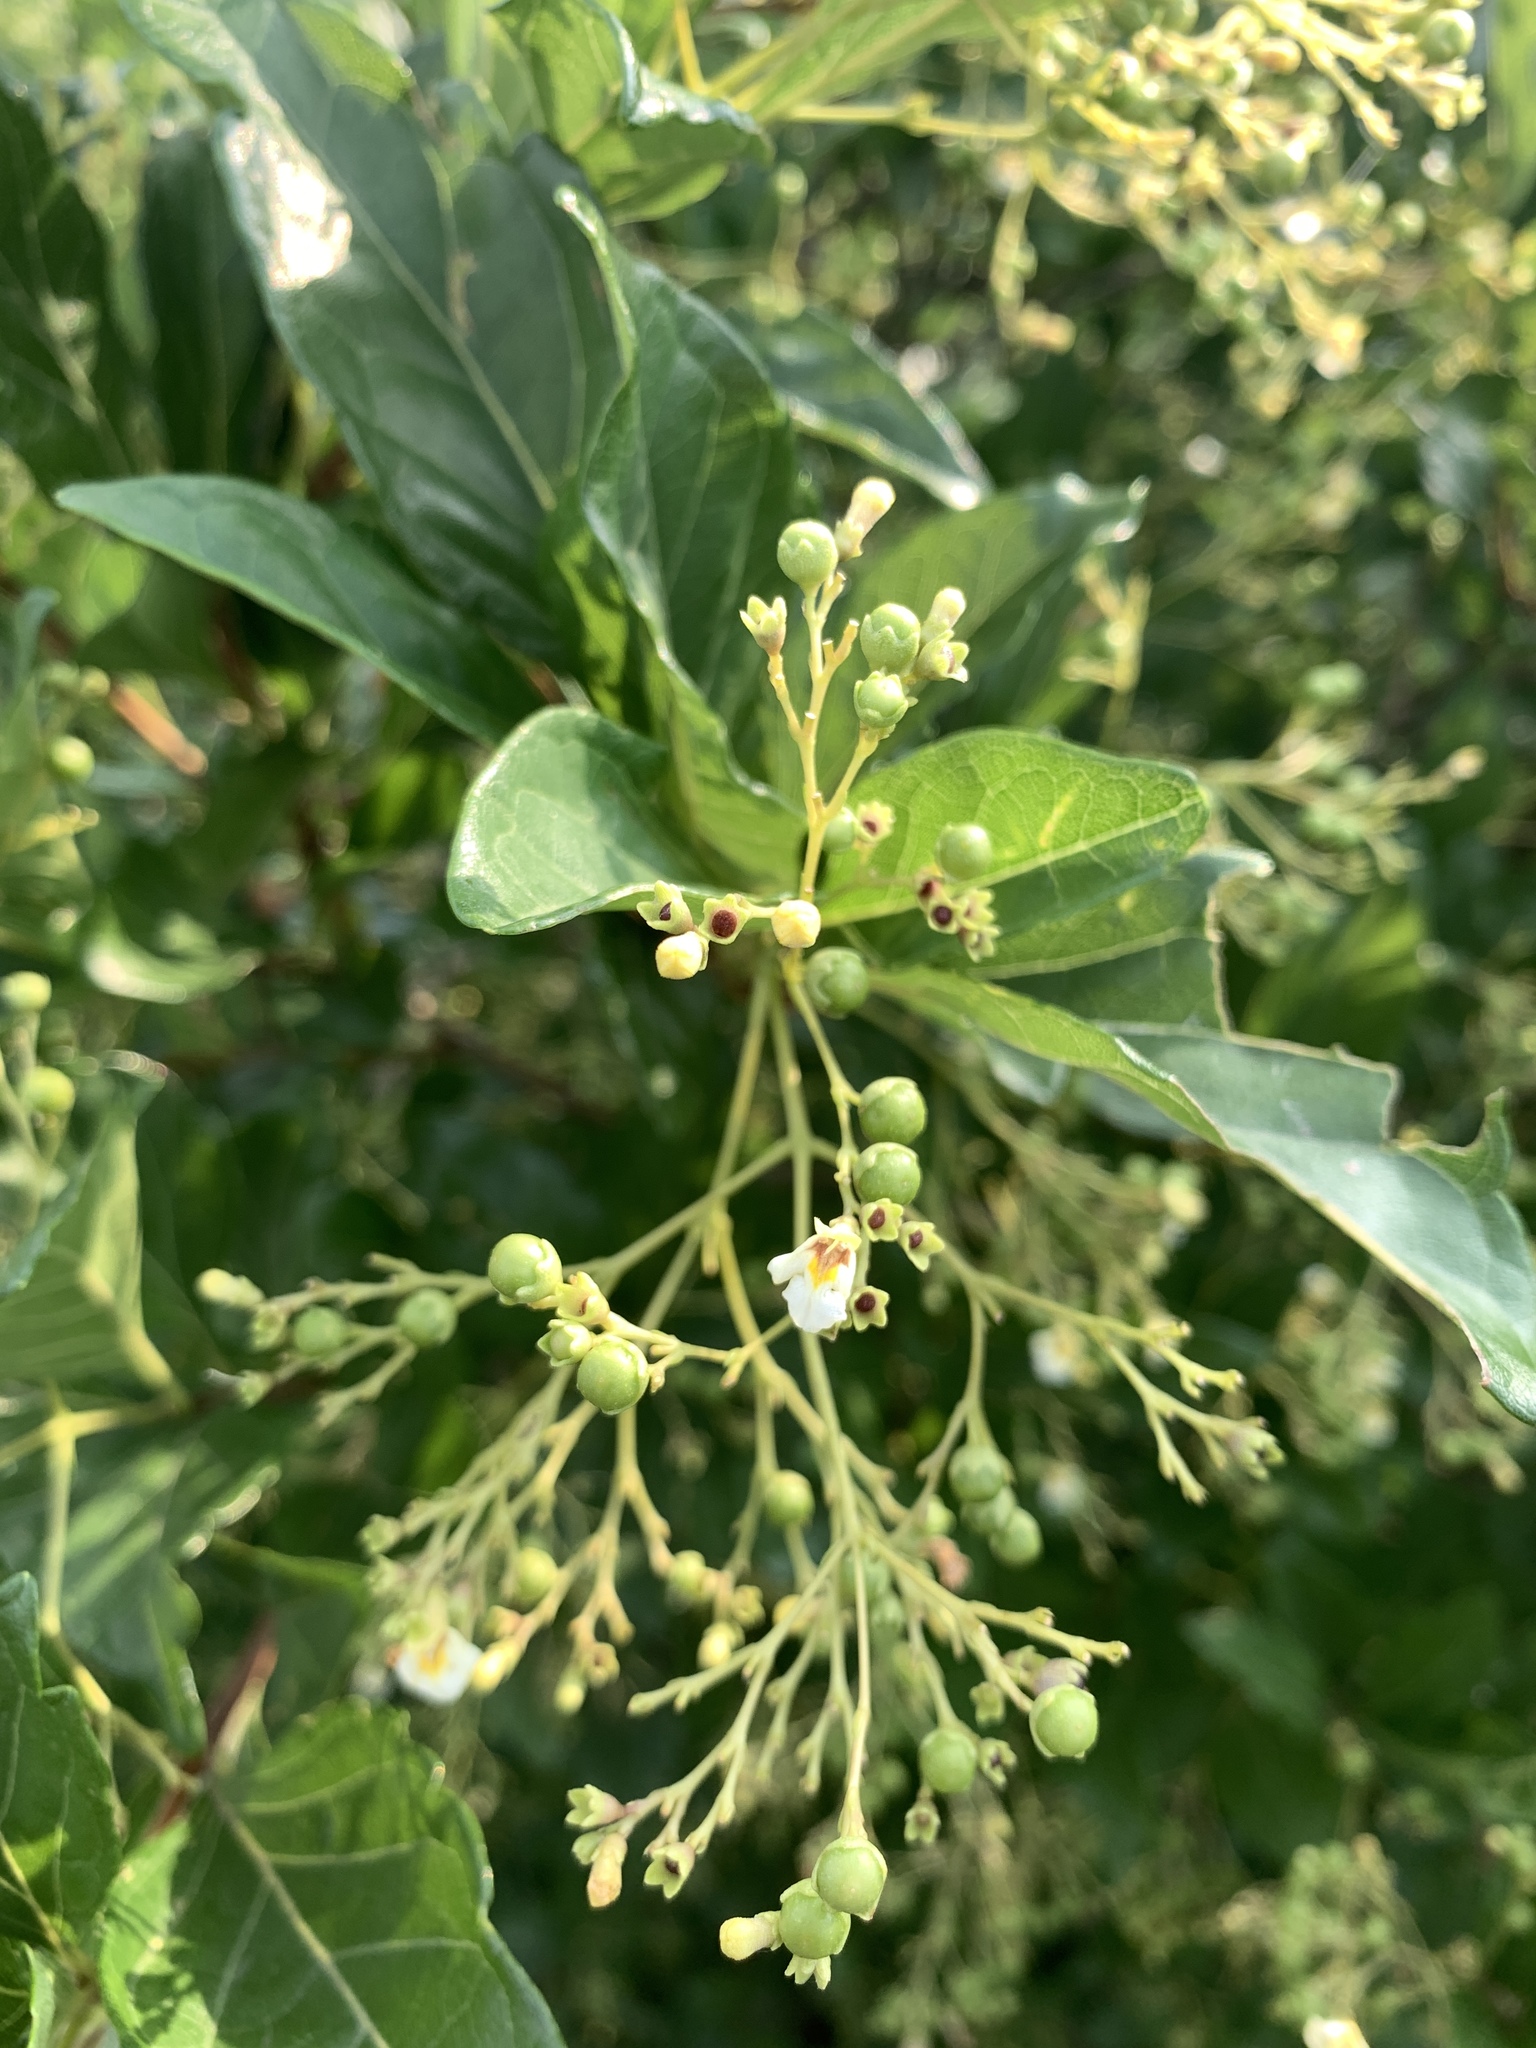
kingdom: Plantae
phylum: Tracheophyta
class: Magnoliopsida
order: Lamiales
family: Lamiaceae
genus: Premna
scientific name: Premna microphylla
